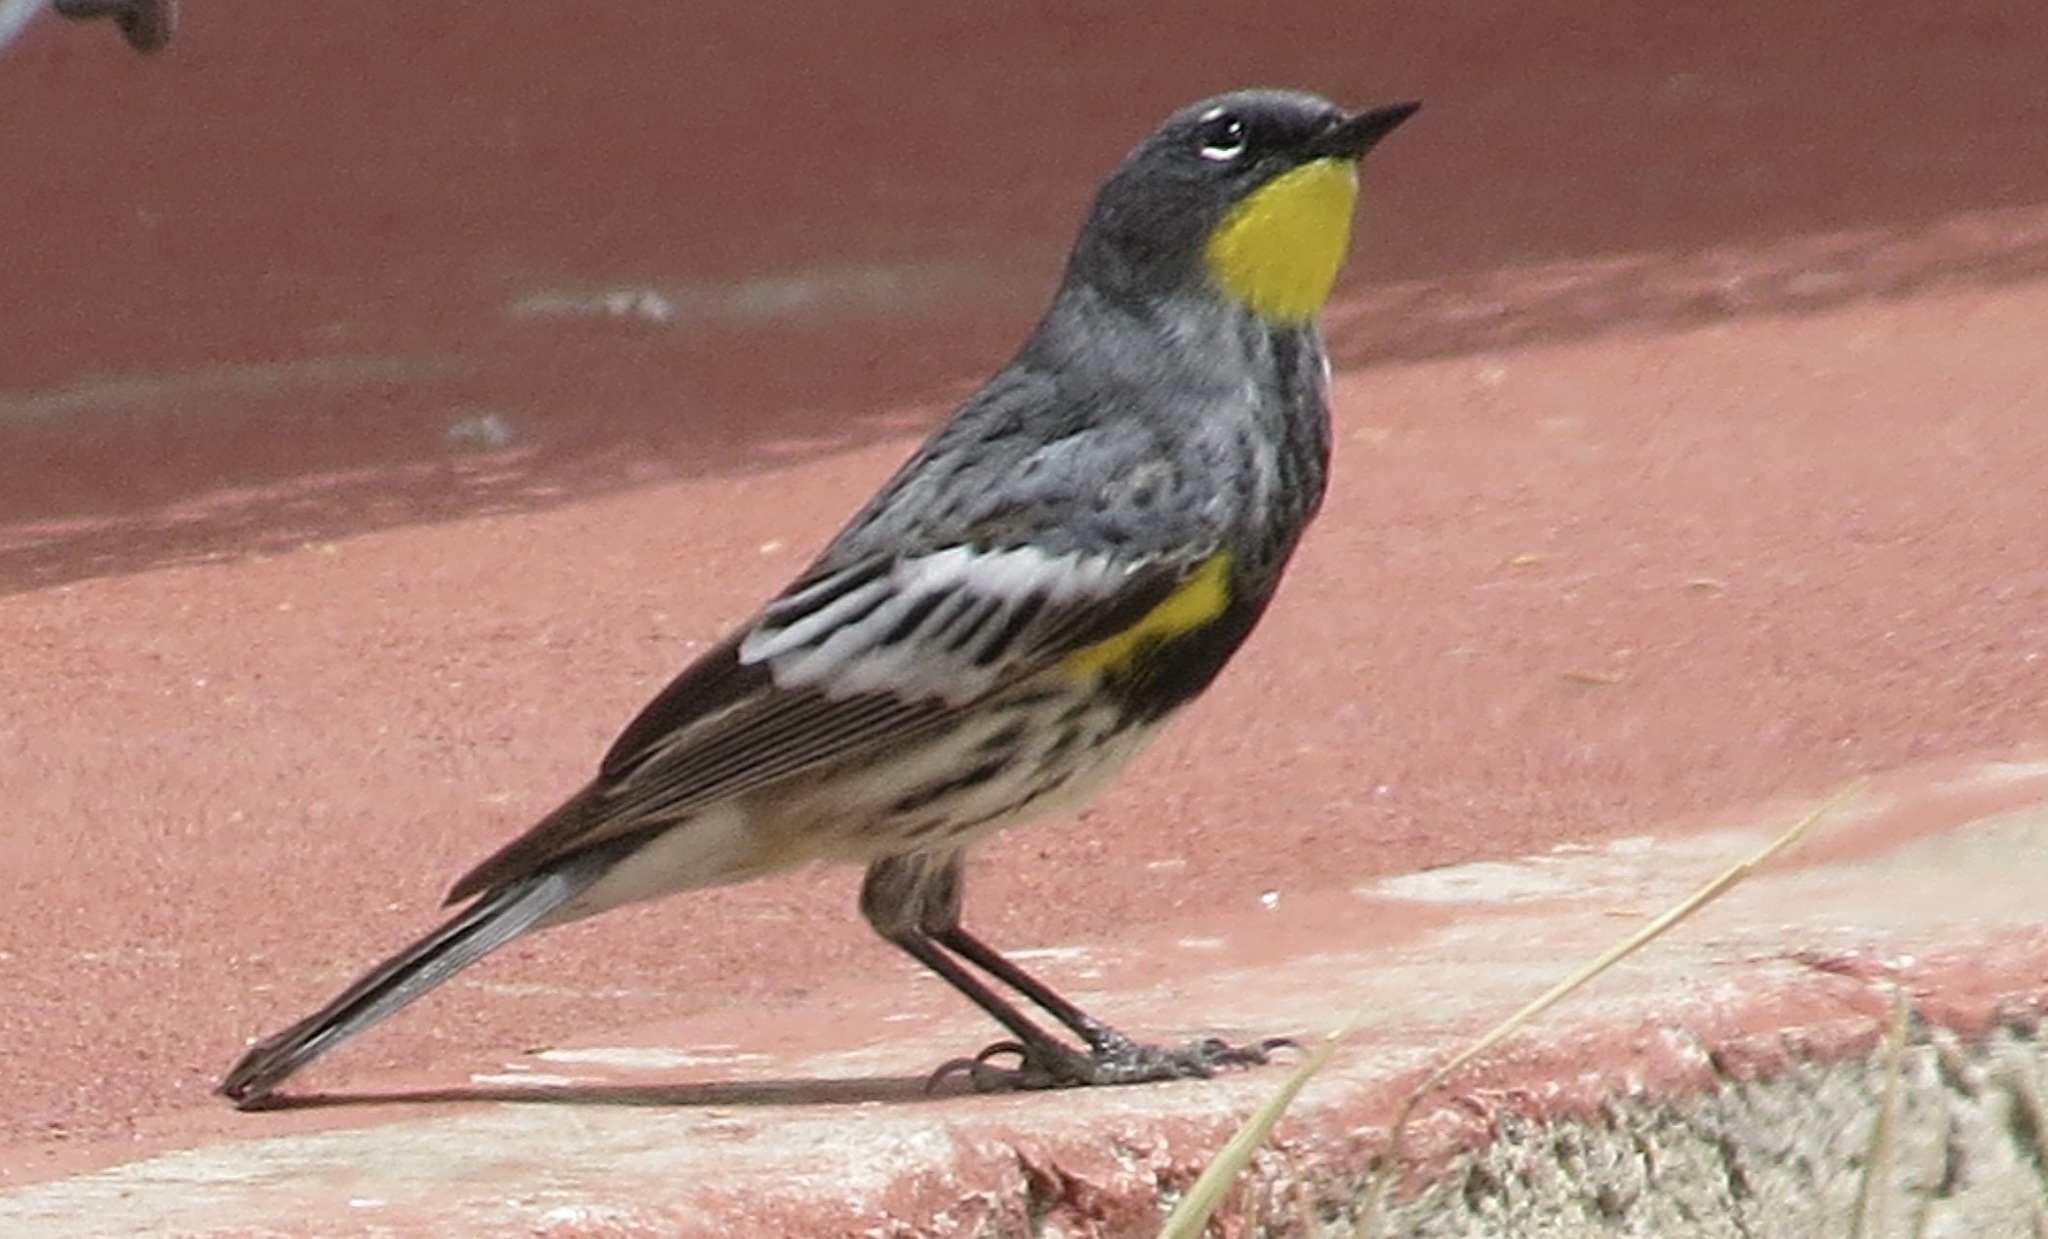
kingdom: Animalia
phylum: Chordata
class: Aves
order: Passeriformes
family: Parulidae
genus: Setophaga
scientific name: Setophaga auduboni
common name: Audubon's warbler
